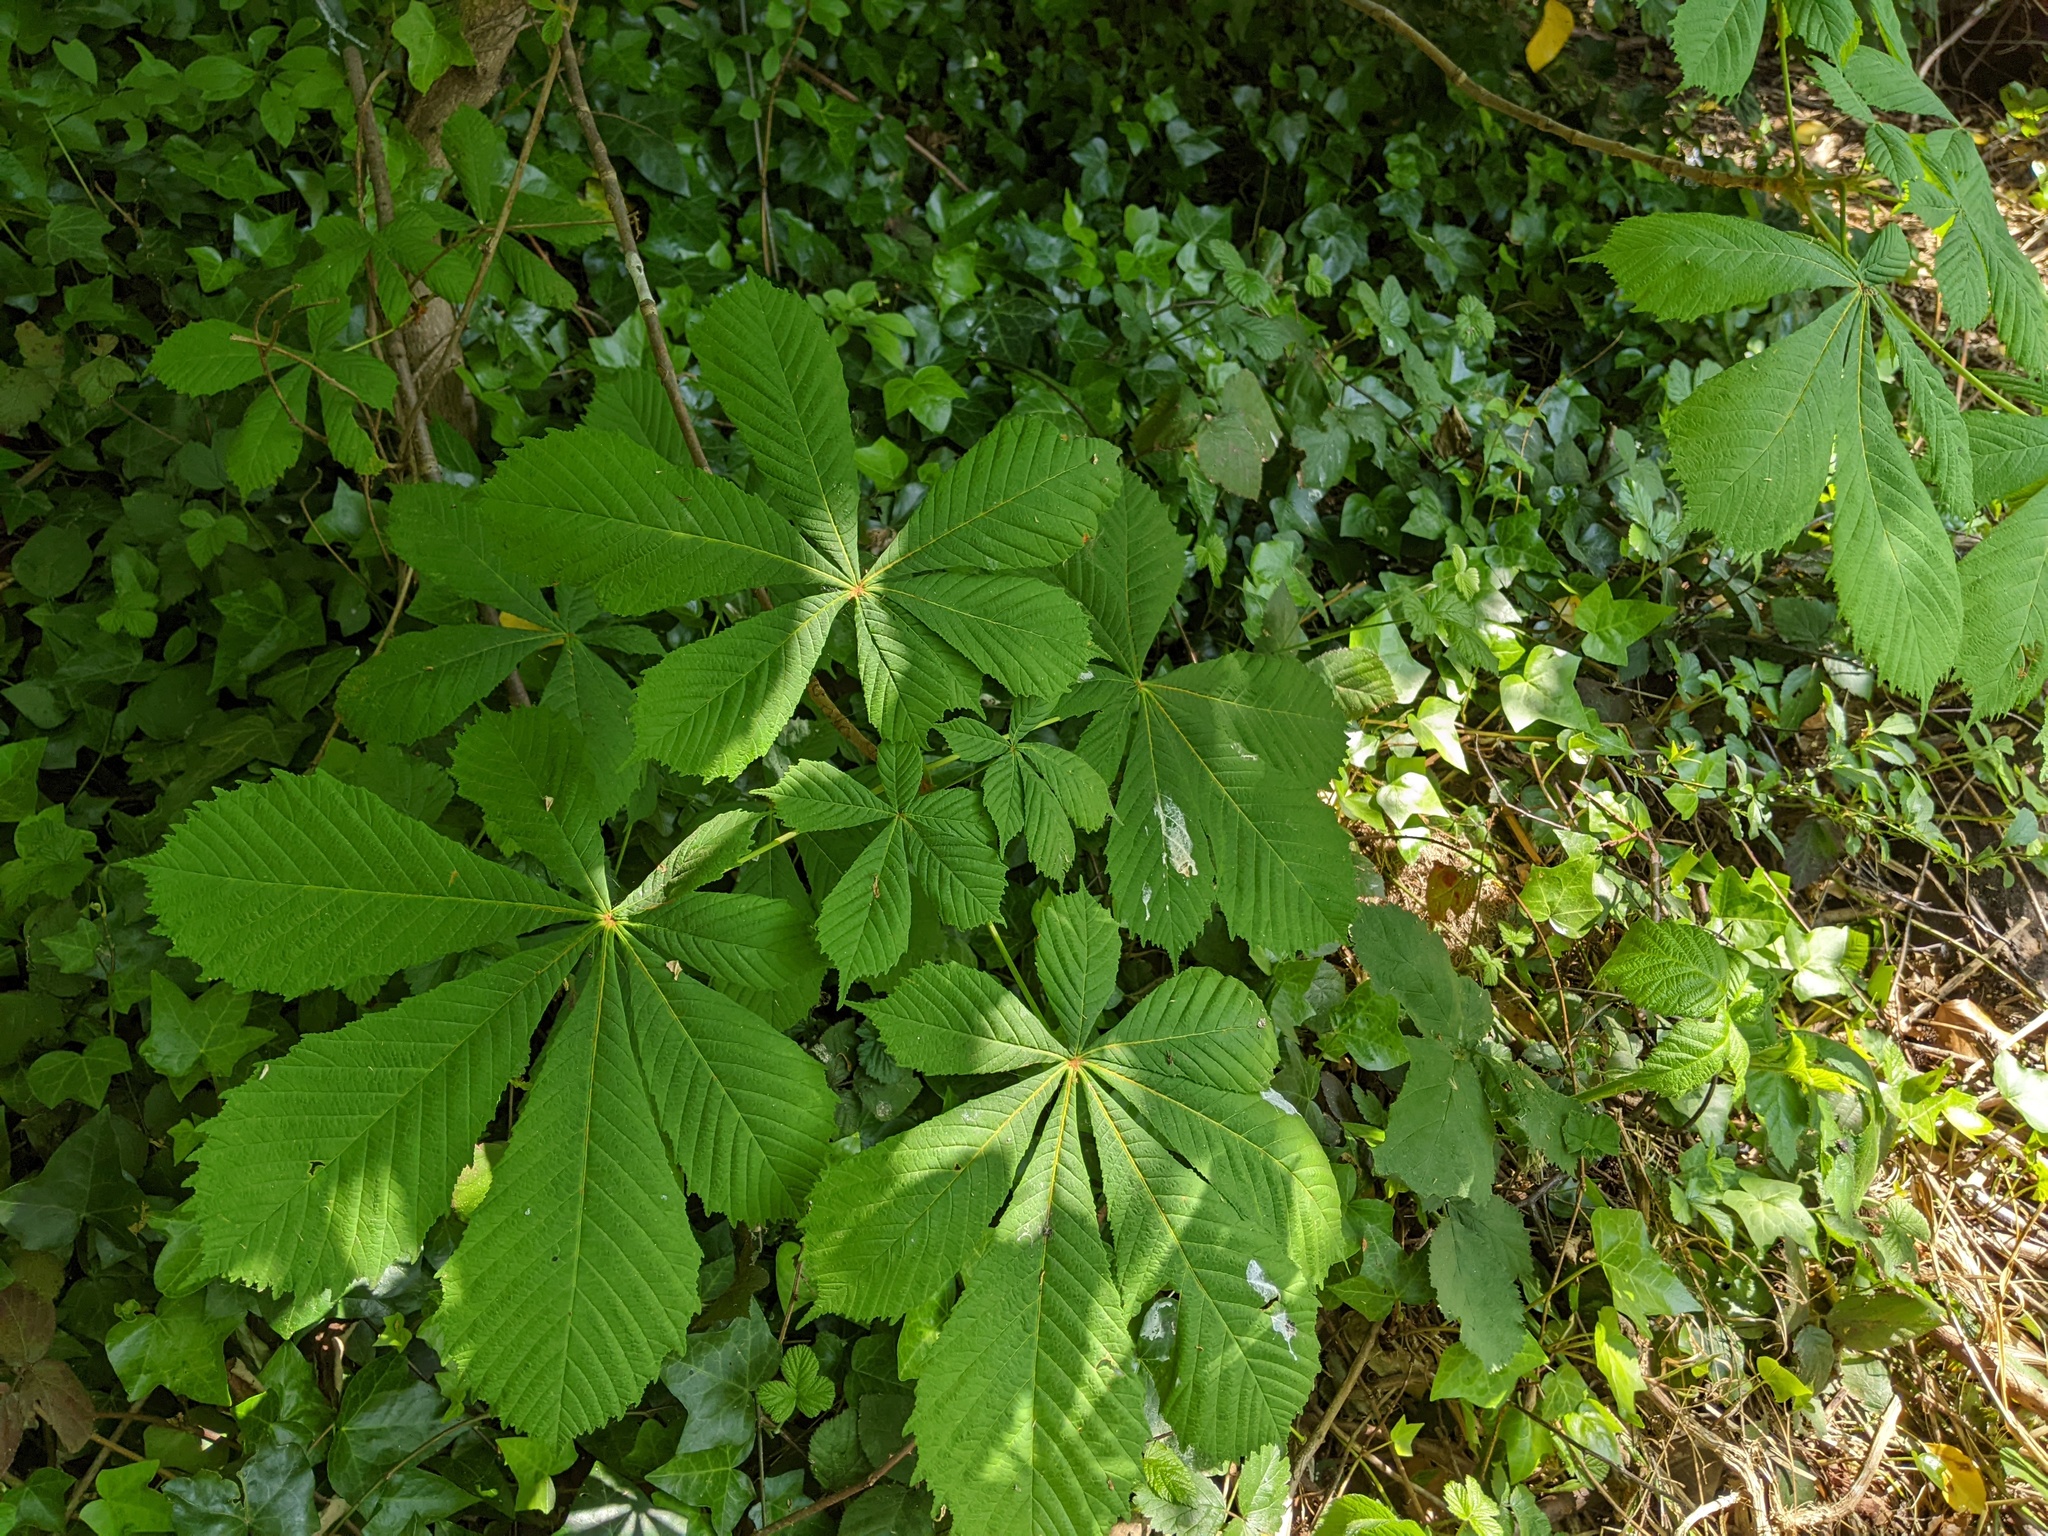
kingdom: Plantae
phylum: Tracheophyta
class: Magnoliopsida
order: Sapindales
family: Sapindaceae
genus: Aesculus
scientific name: Aesculus hippocastanum
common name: Horse-chestnut
